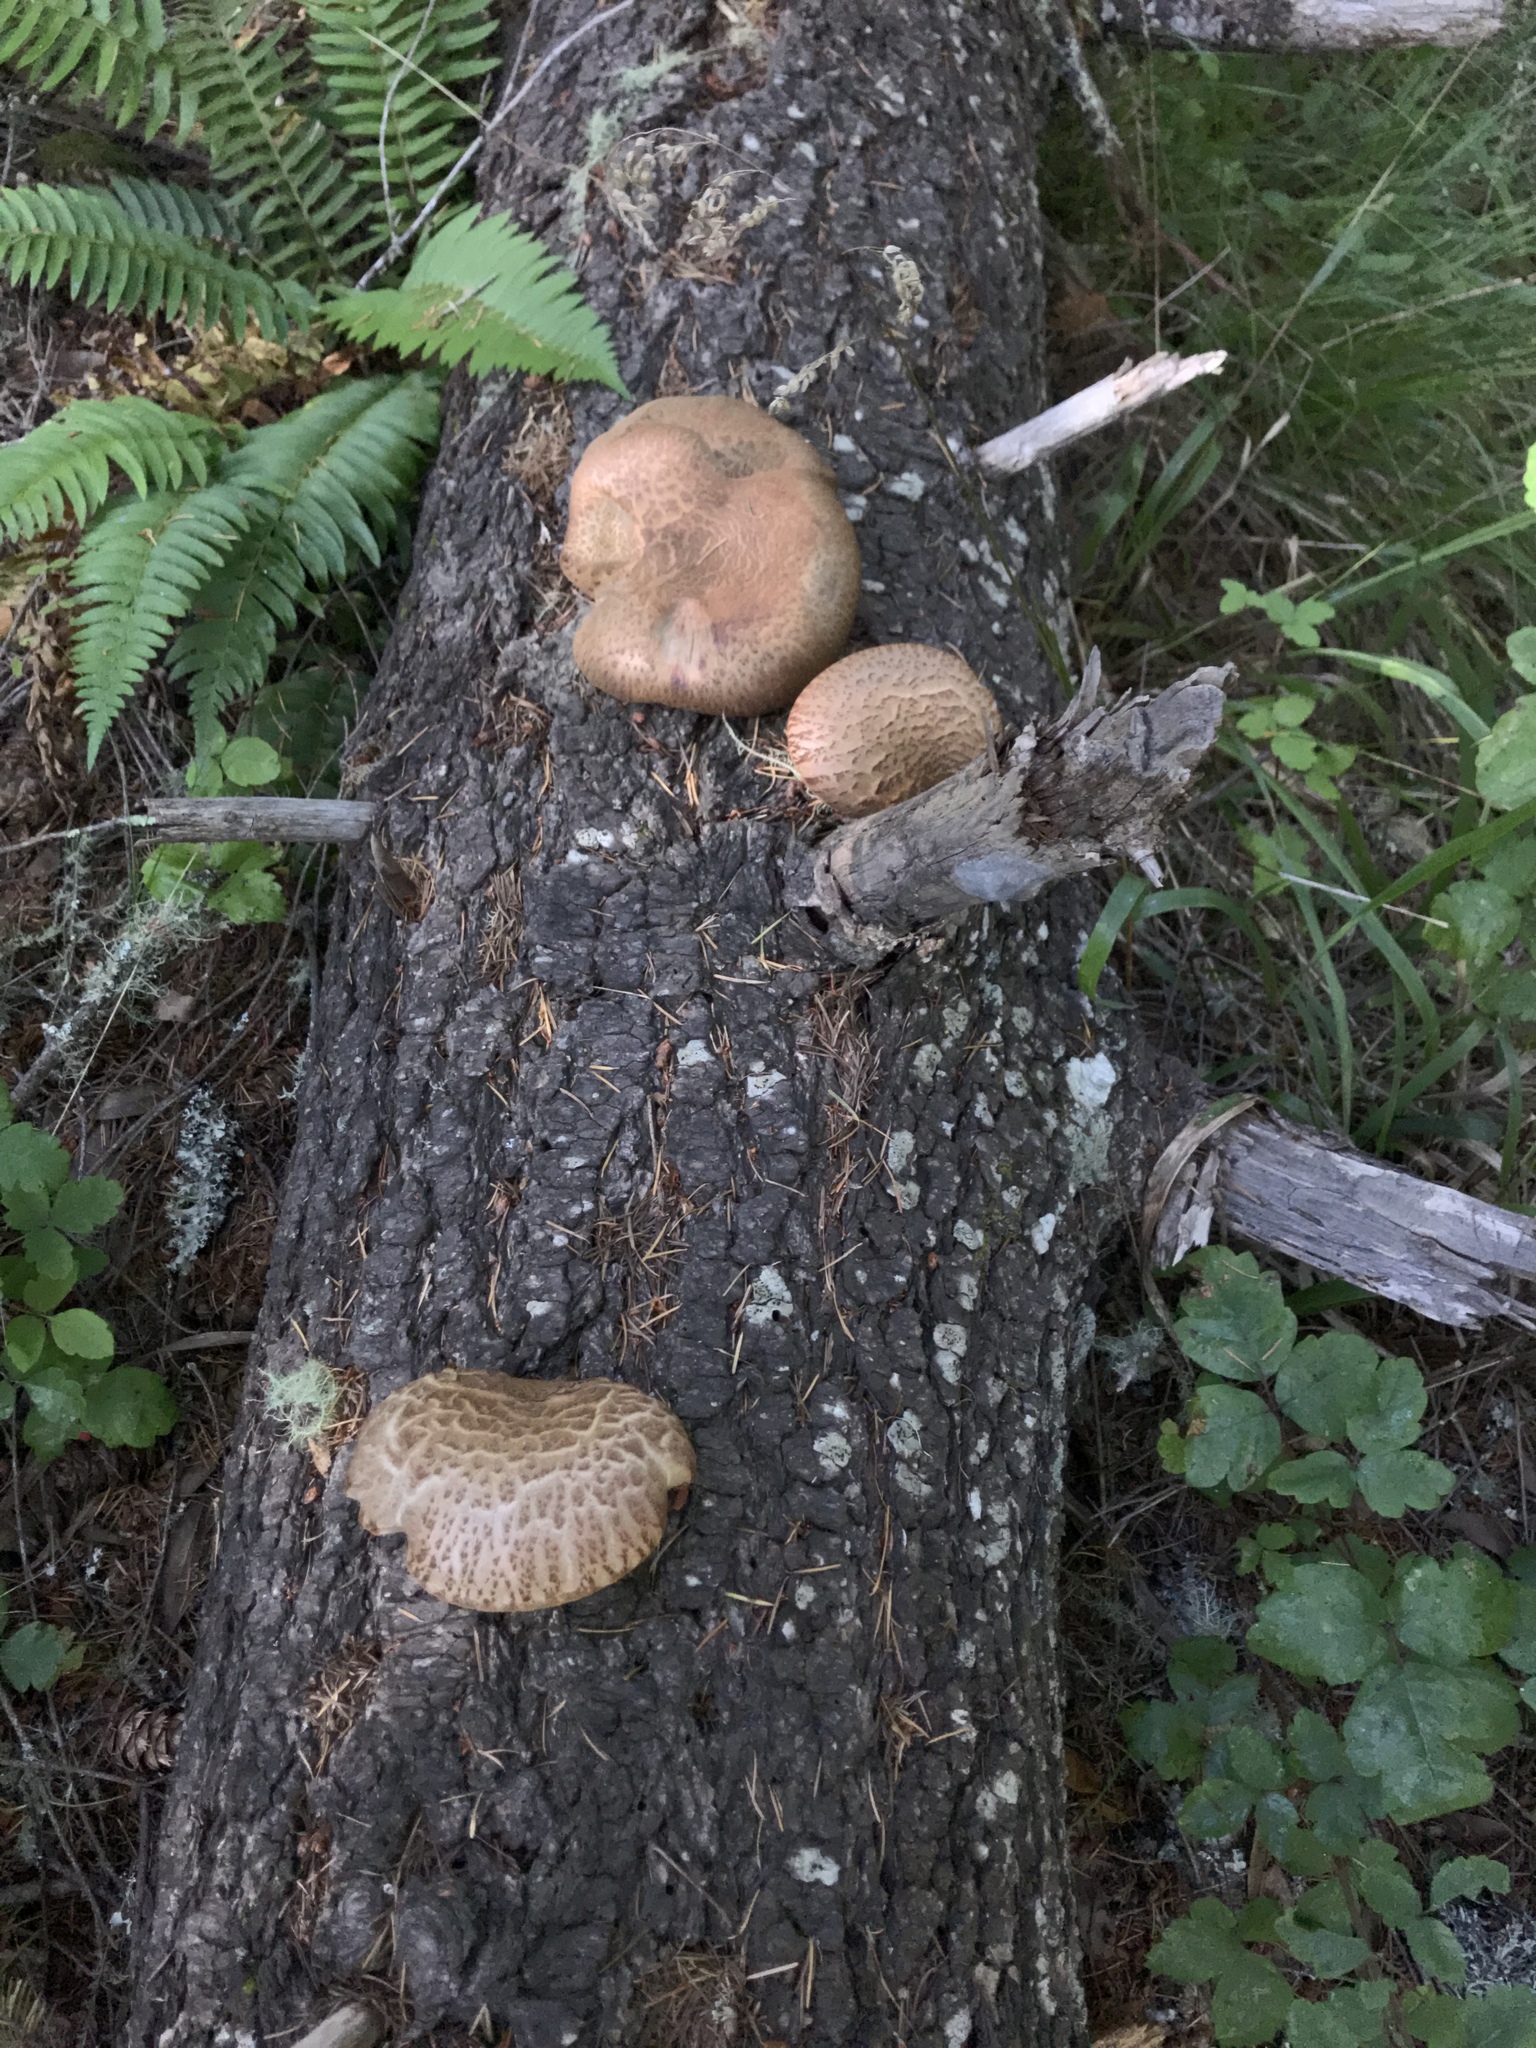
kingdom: Fungi
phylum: Basidiomycota
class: Agaricomycetes
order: Boletales
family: Tapinellaceae
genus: Tapinella
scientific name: Tapinella atrotomentosa
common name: Velvet rollrim
